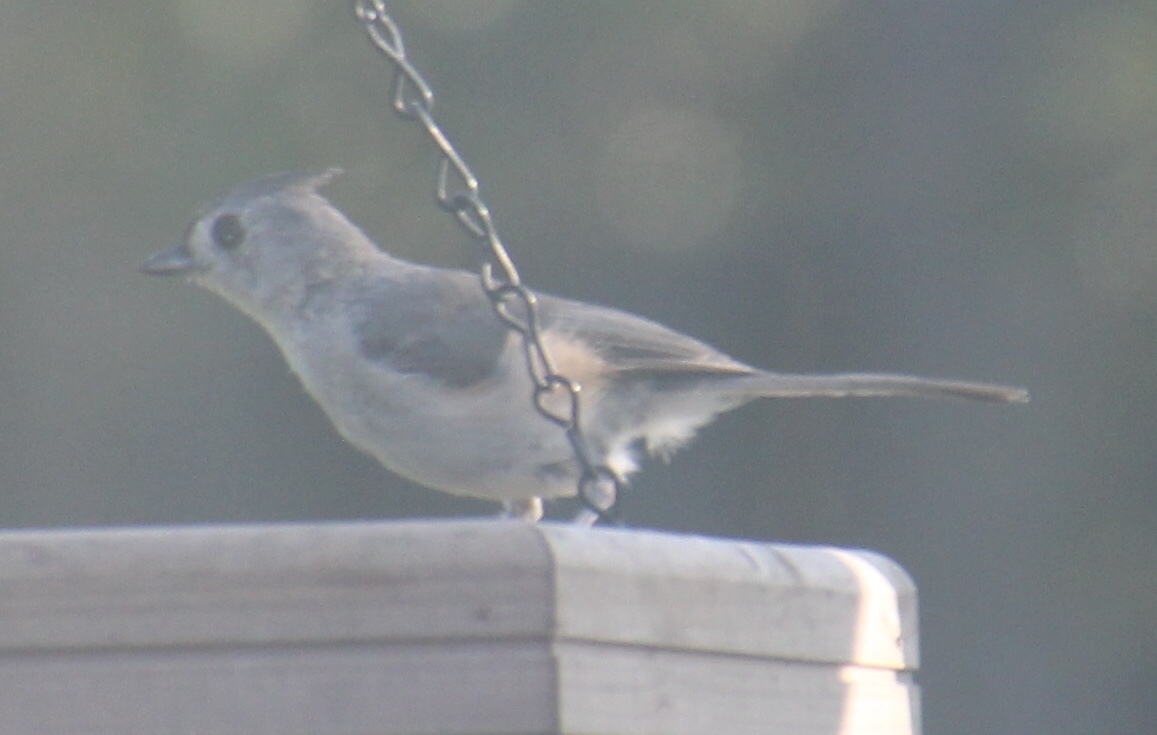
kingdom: Animalia
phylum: Chordata
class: Aves
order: Passeriformes
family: Paridae
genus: Baeolophus
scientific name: Baeolophus bicolor
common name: Tufted titmouse
